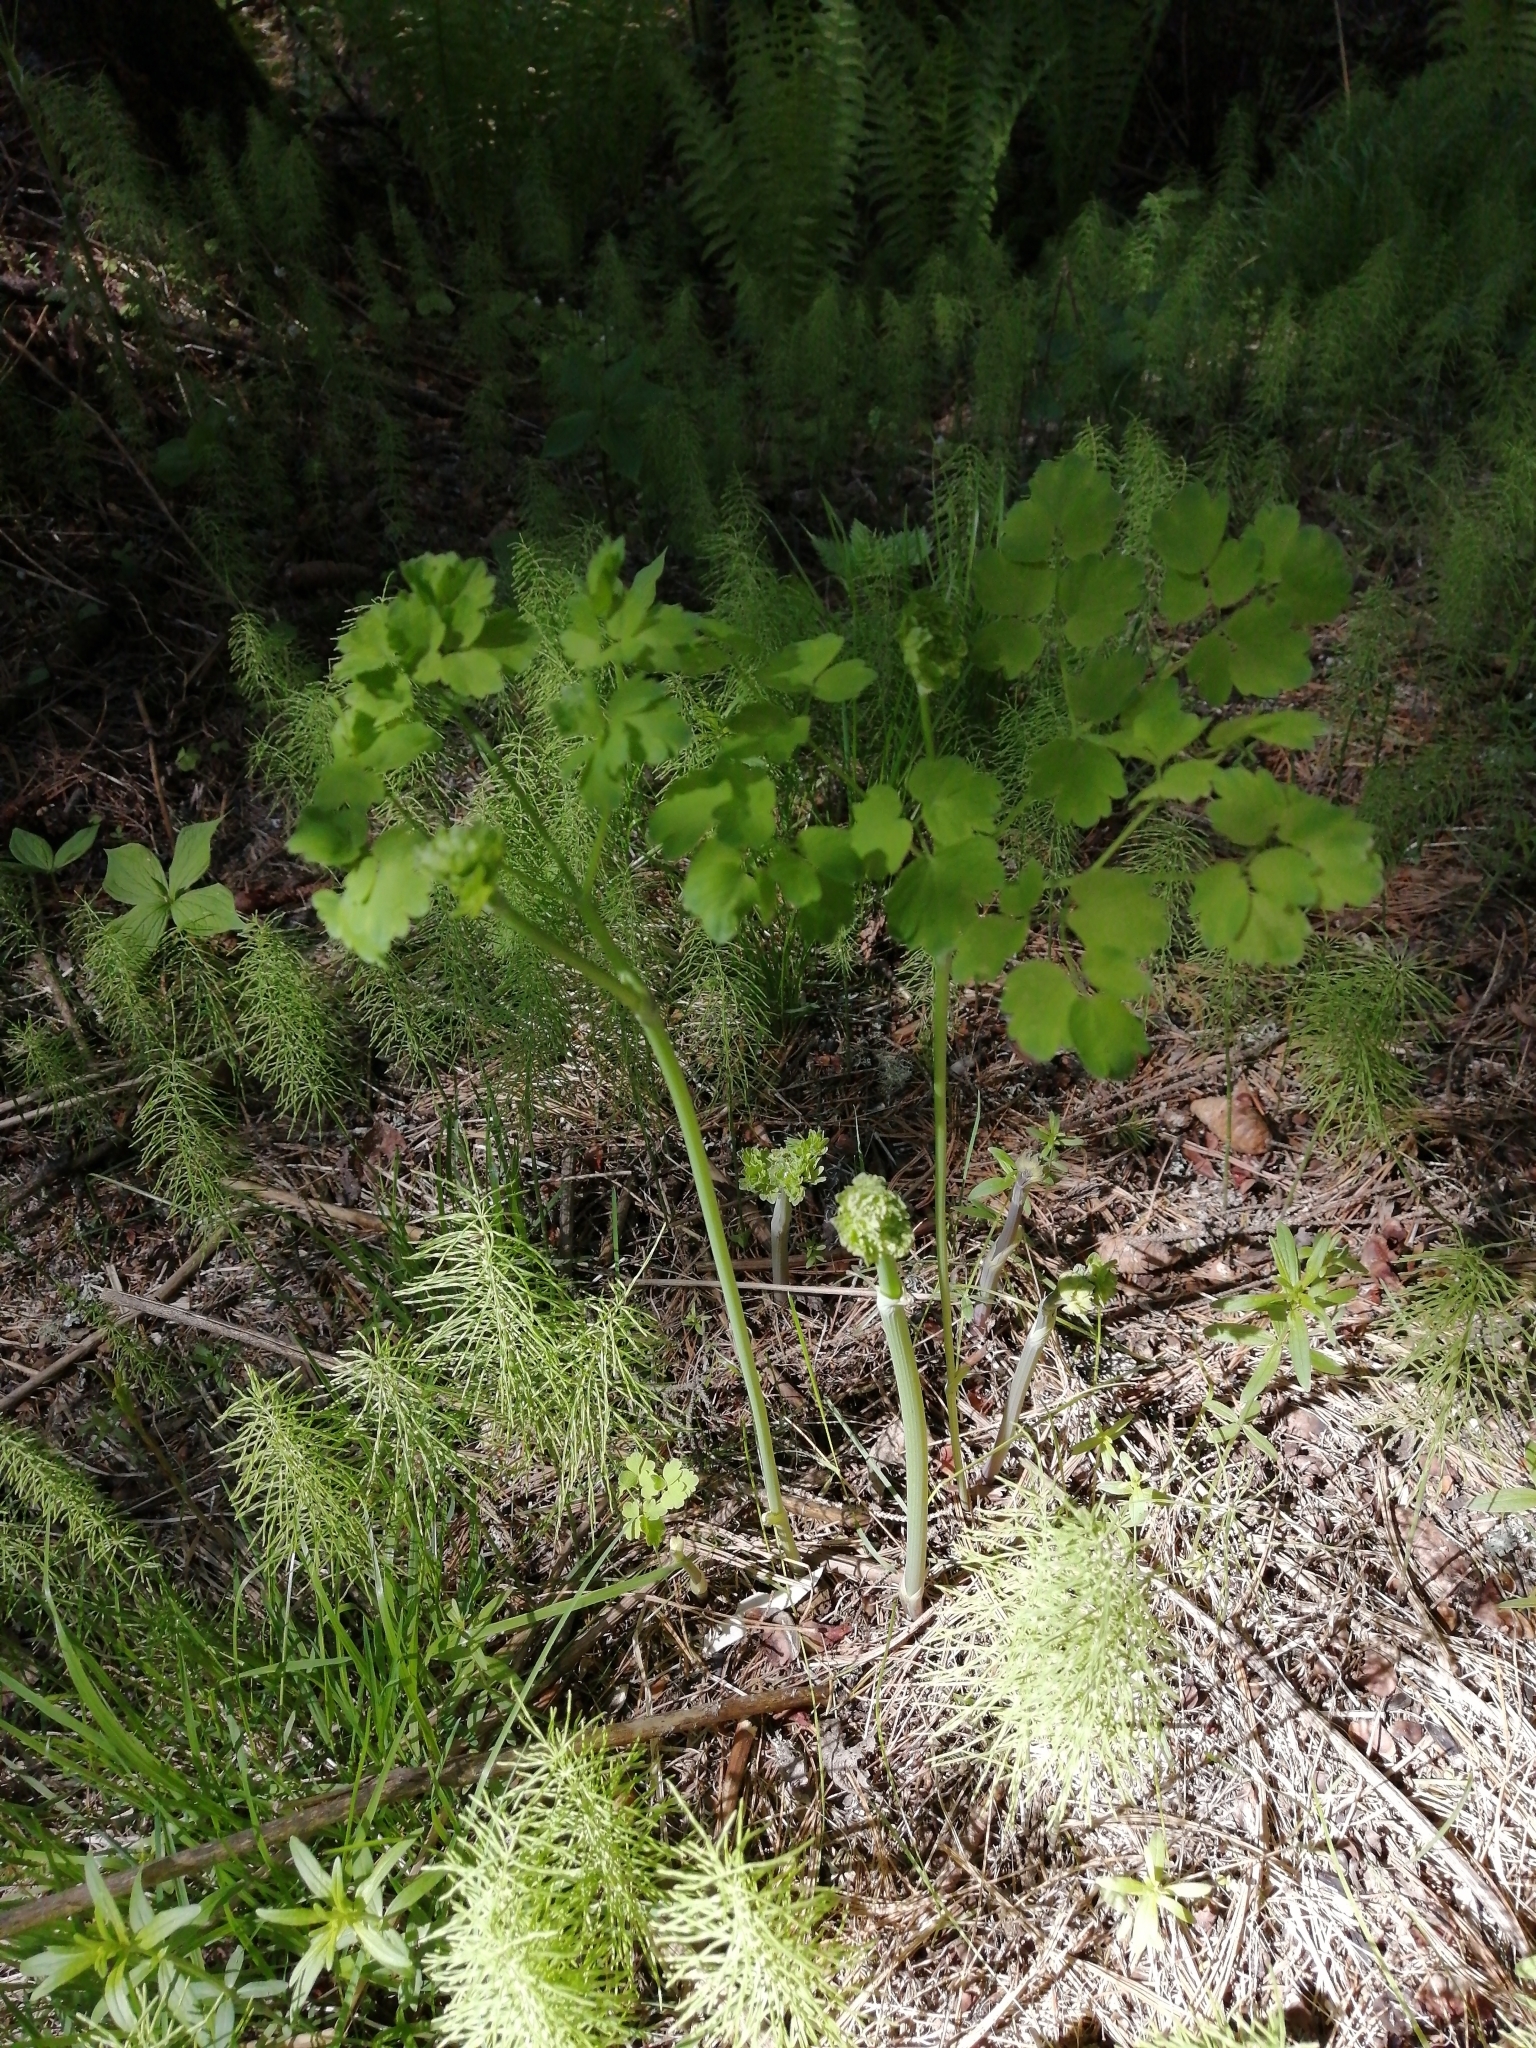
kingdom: Plantae
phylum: Tracheophyta
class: Magnoliopsida
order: Ranunculales
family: Ranunculaceae
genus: Thalictrum
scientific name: Thalictrum minus
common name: Lesser meadow-rue
